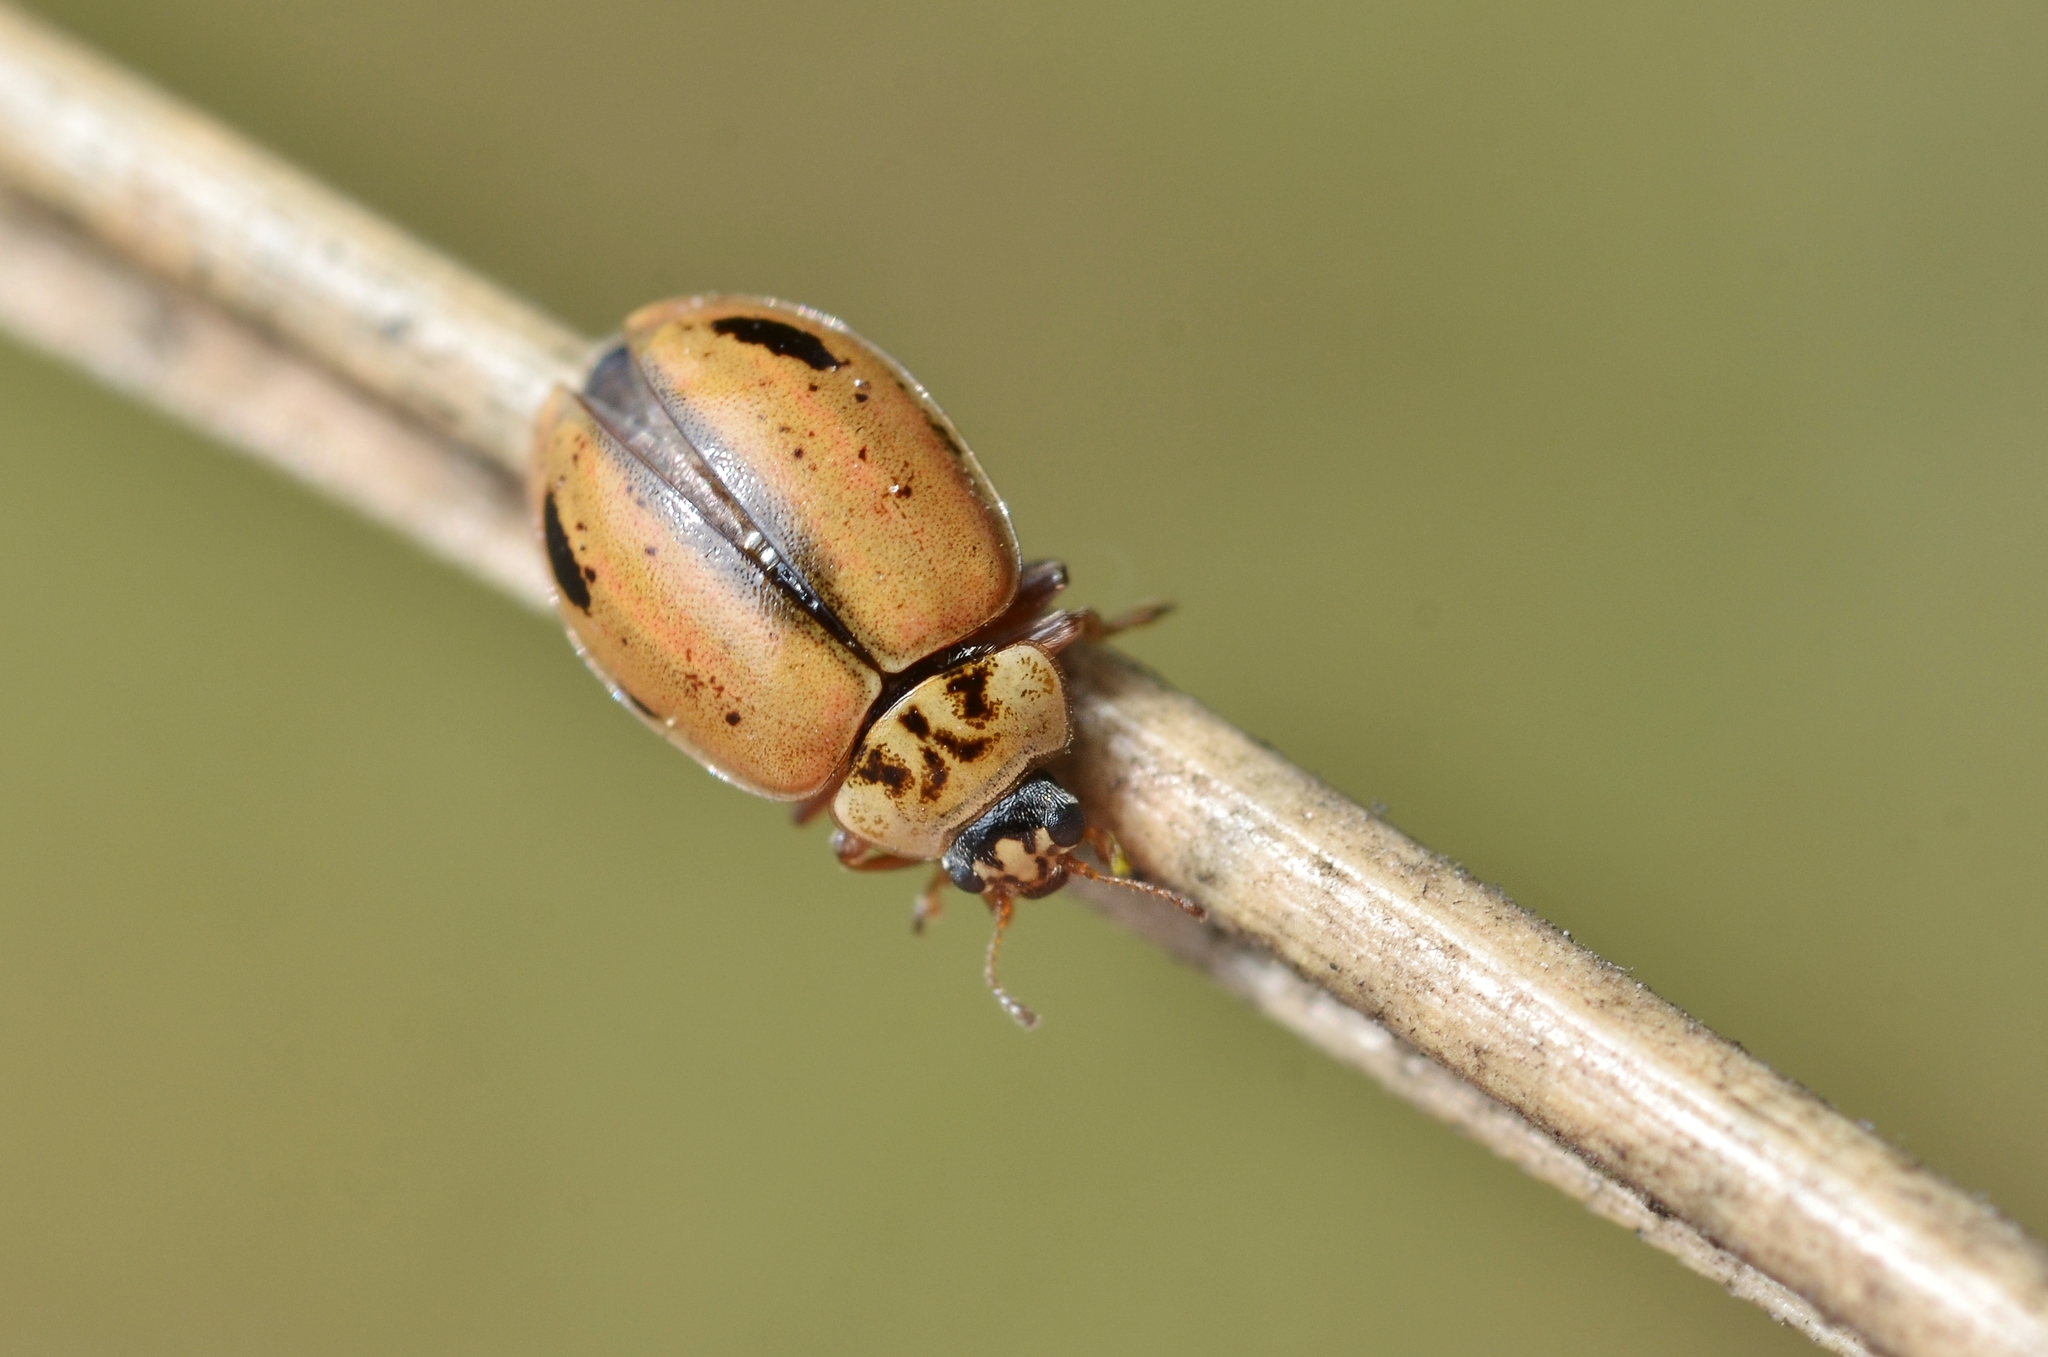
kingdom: Animalia
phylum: Arthropoda
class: Insecta
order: Coleoptera
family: Coccinellidae
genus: Aphidecta
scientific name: Aphidecta obliterata
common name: Larch ladybird
